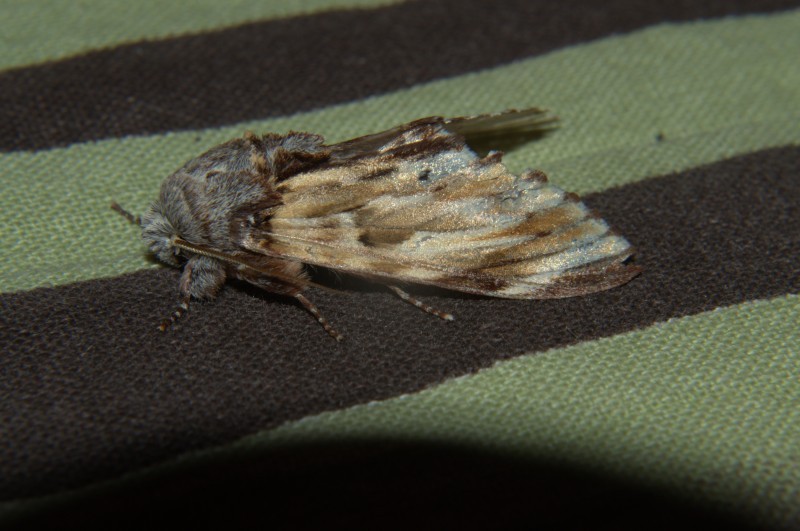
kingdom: Animalia
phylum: Arthropoda
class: Insecta
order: Lepidoptera
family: Notodontidae
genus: Neopheosia
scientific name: Neopheosia fasciata
